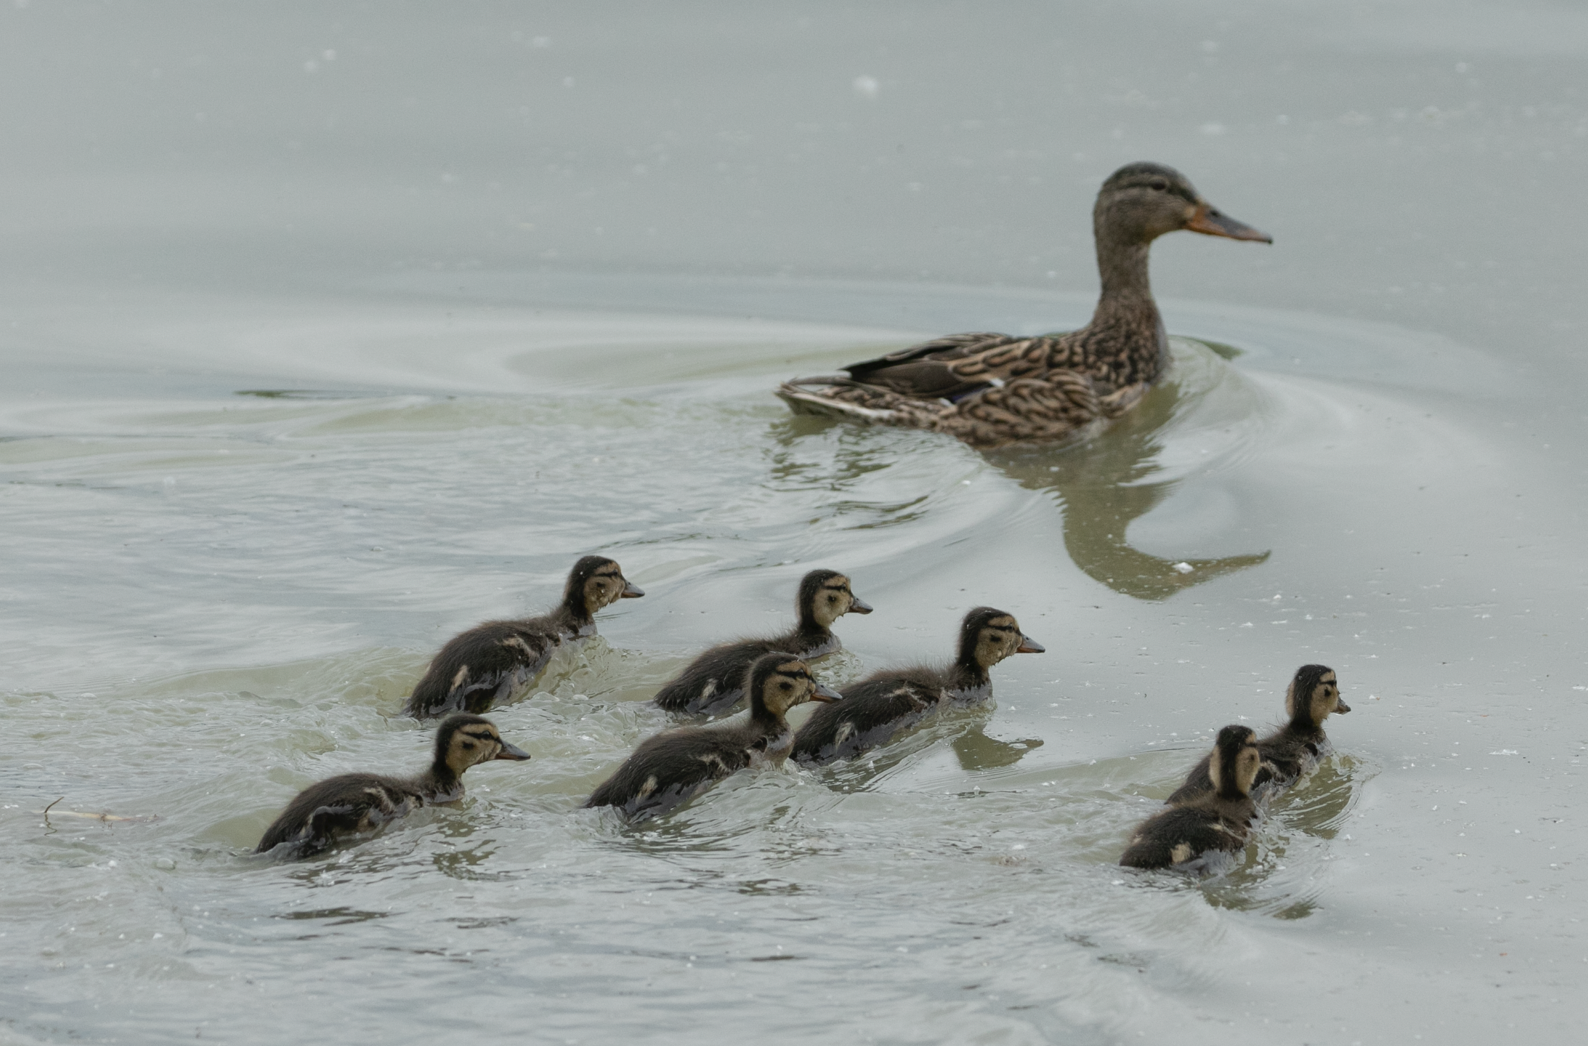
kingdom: Animalia
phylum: Chordata
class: Aves
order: Anseriformes
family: Anatidae
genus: Anas
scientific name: Anas platyrhynchos
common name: Mallard
